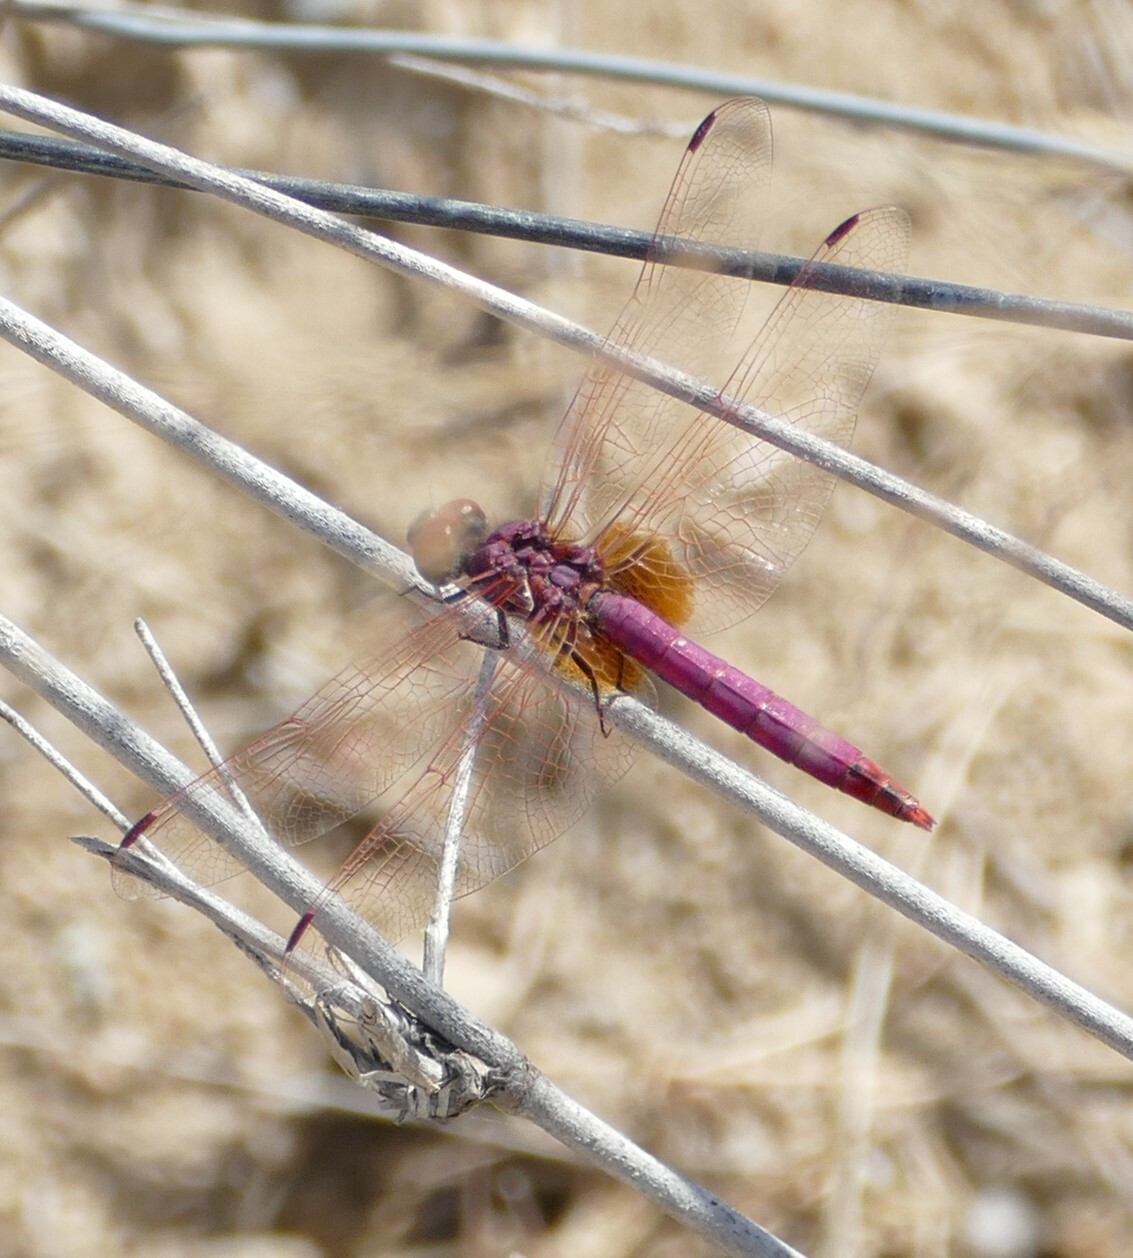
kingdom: Animalia
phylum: Arthropoda
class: Insecta
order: Odonata
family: Libellulidae
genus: Trithemis
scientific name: Trithemis annulata
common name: Violet dropwing
